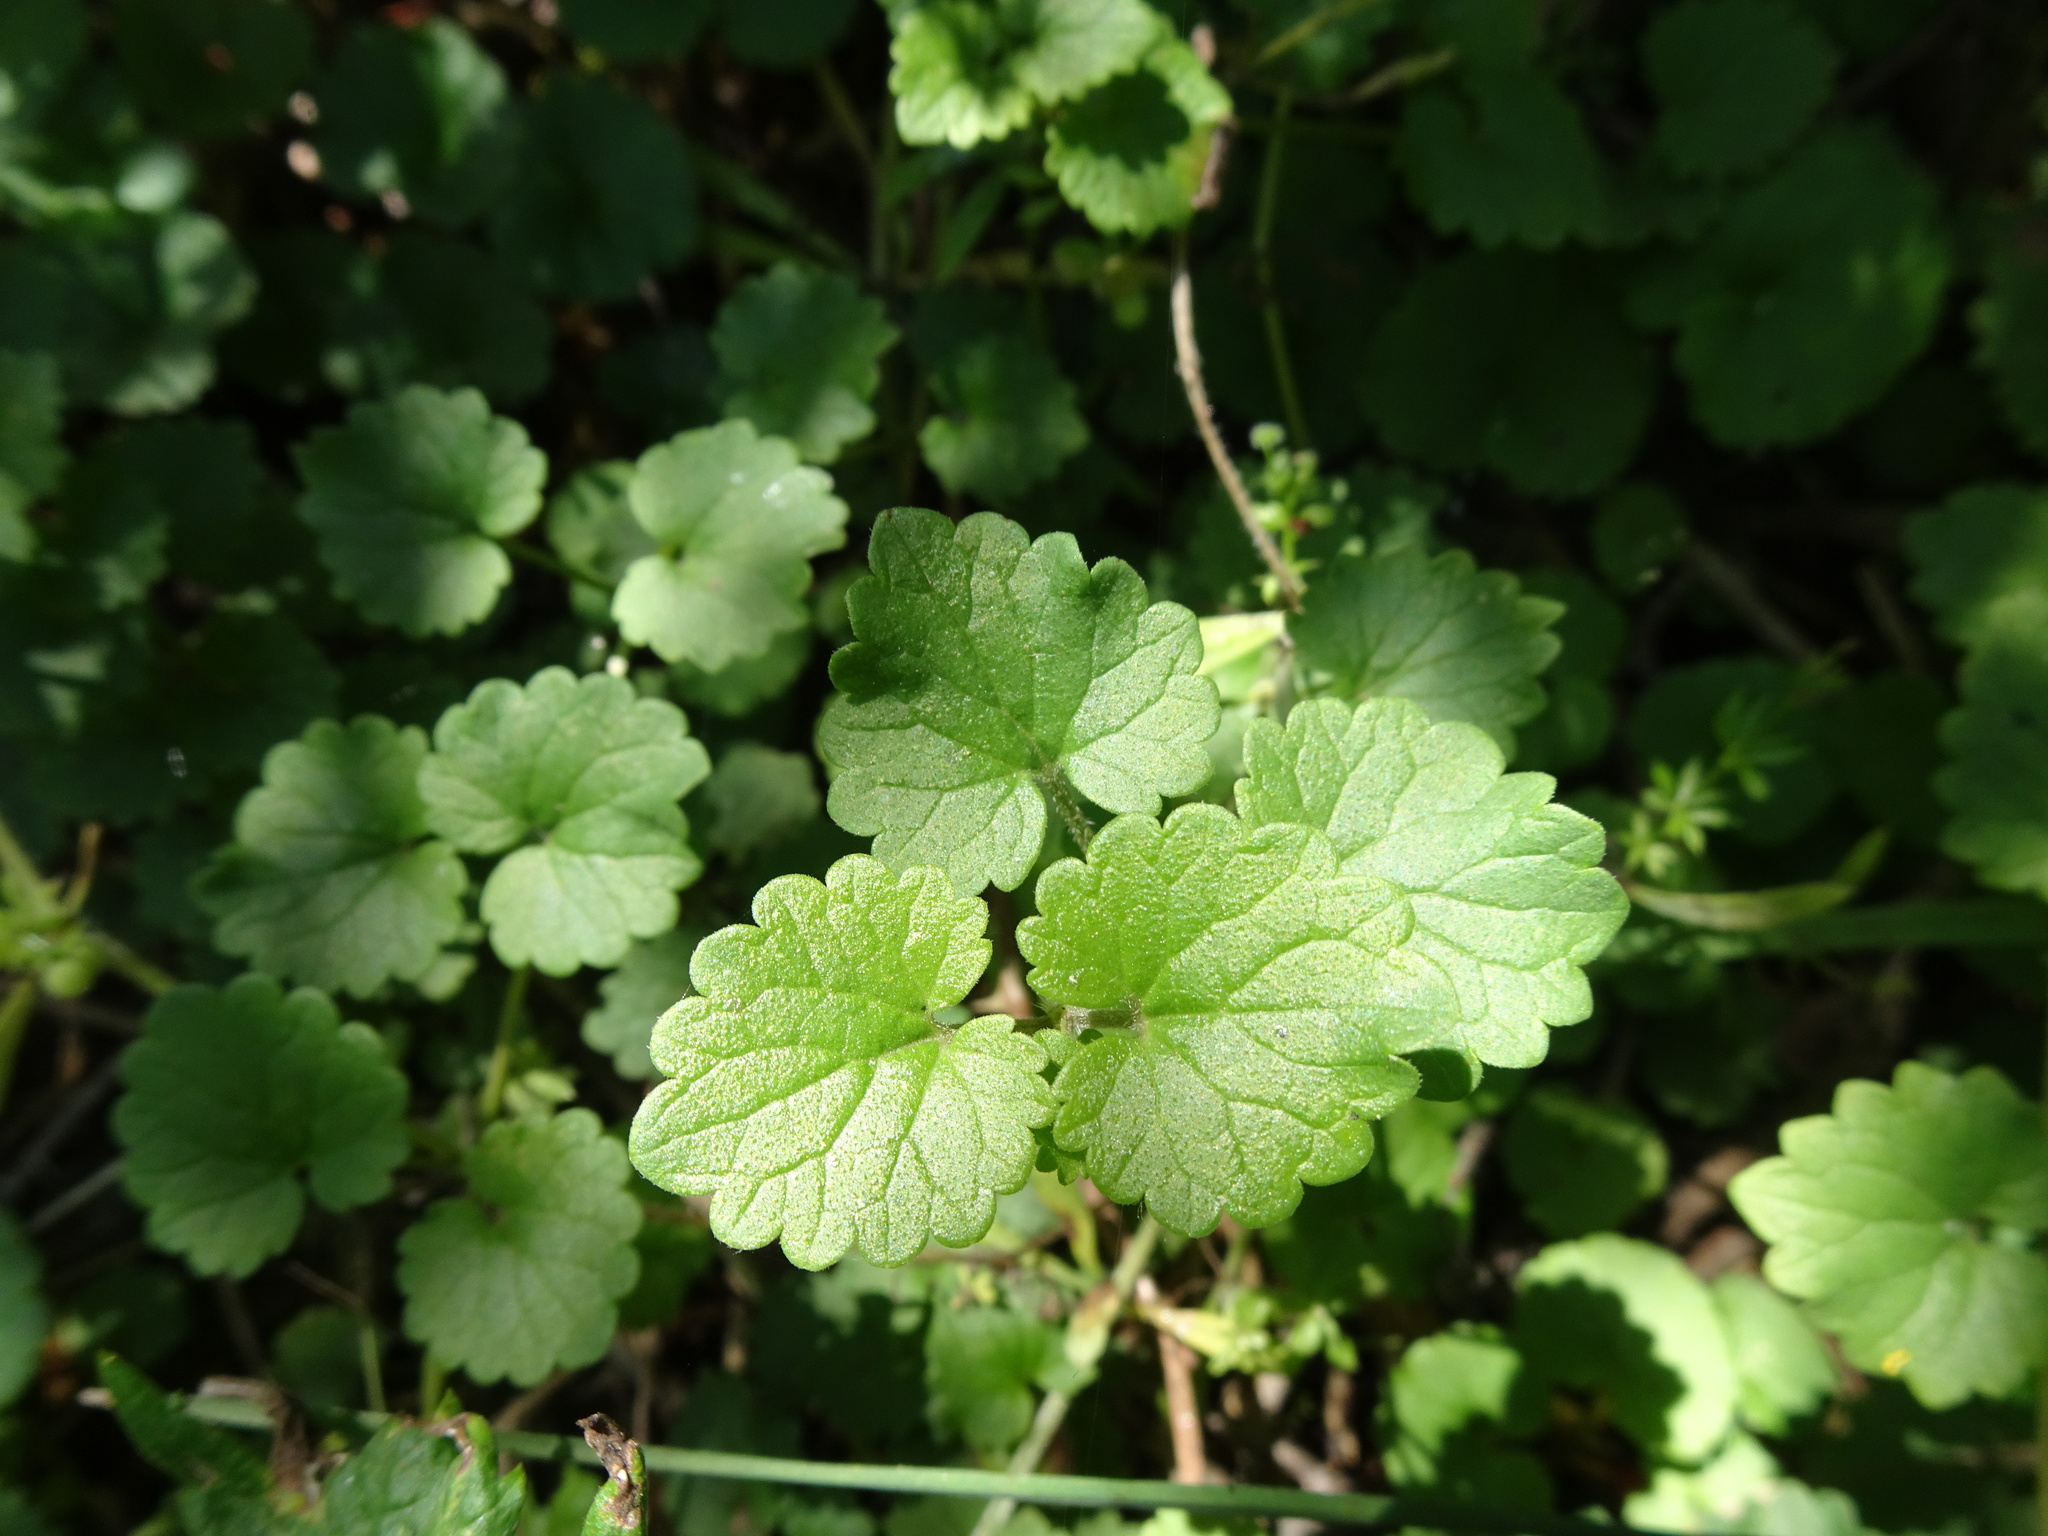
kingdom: Plantae
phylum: Tracheophyta
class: Magnoliopsida
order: Lamiales
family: Lamiaceae
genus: Glechoma
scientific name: Glechoma hederacea
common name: Ground ivy
